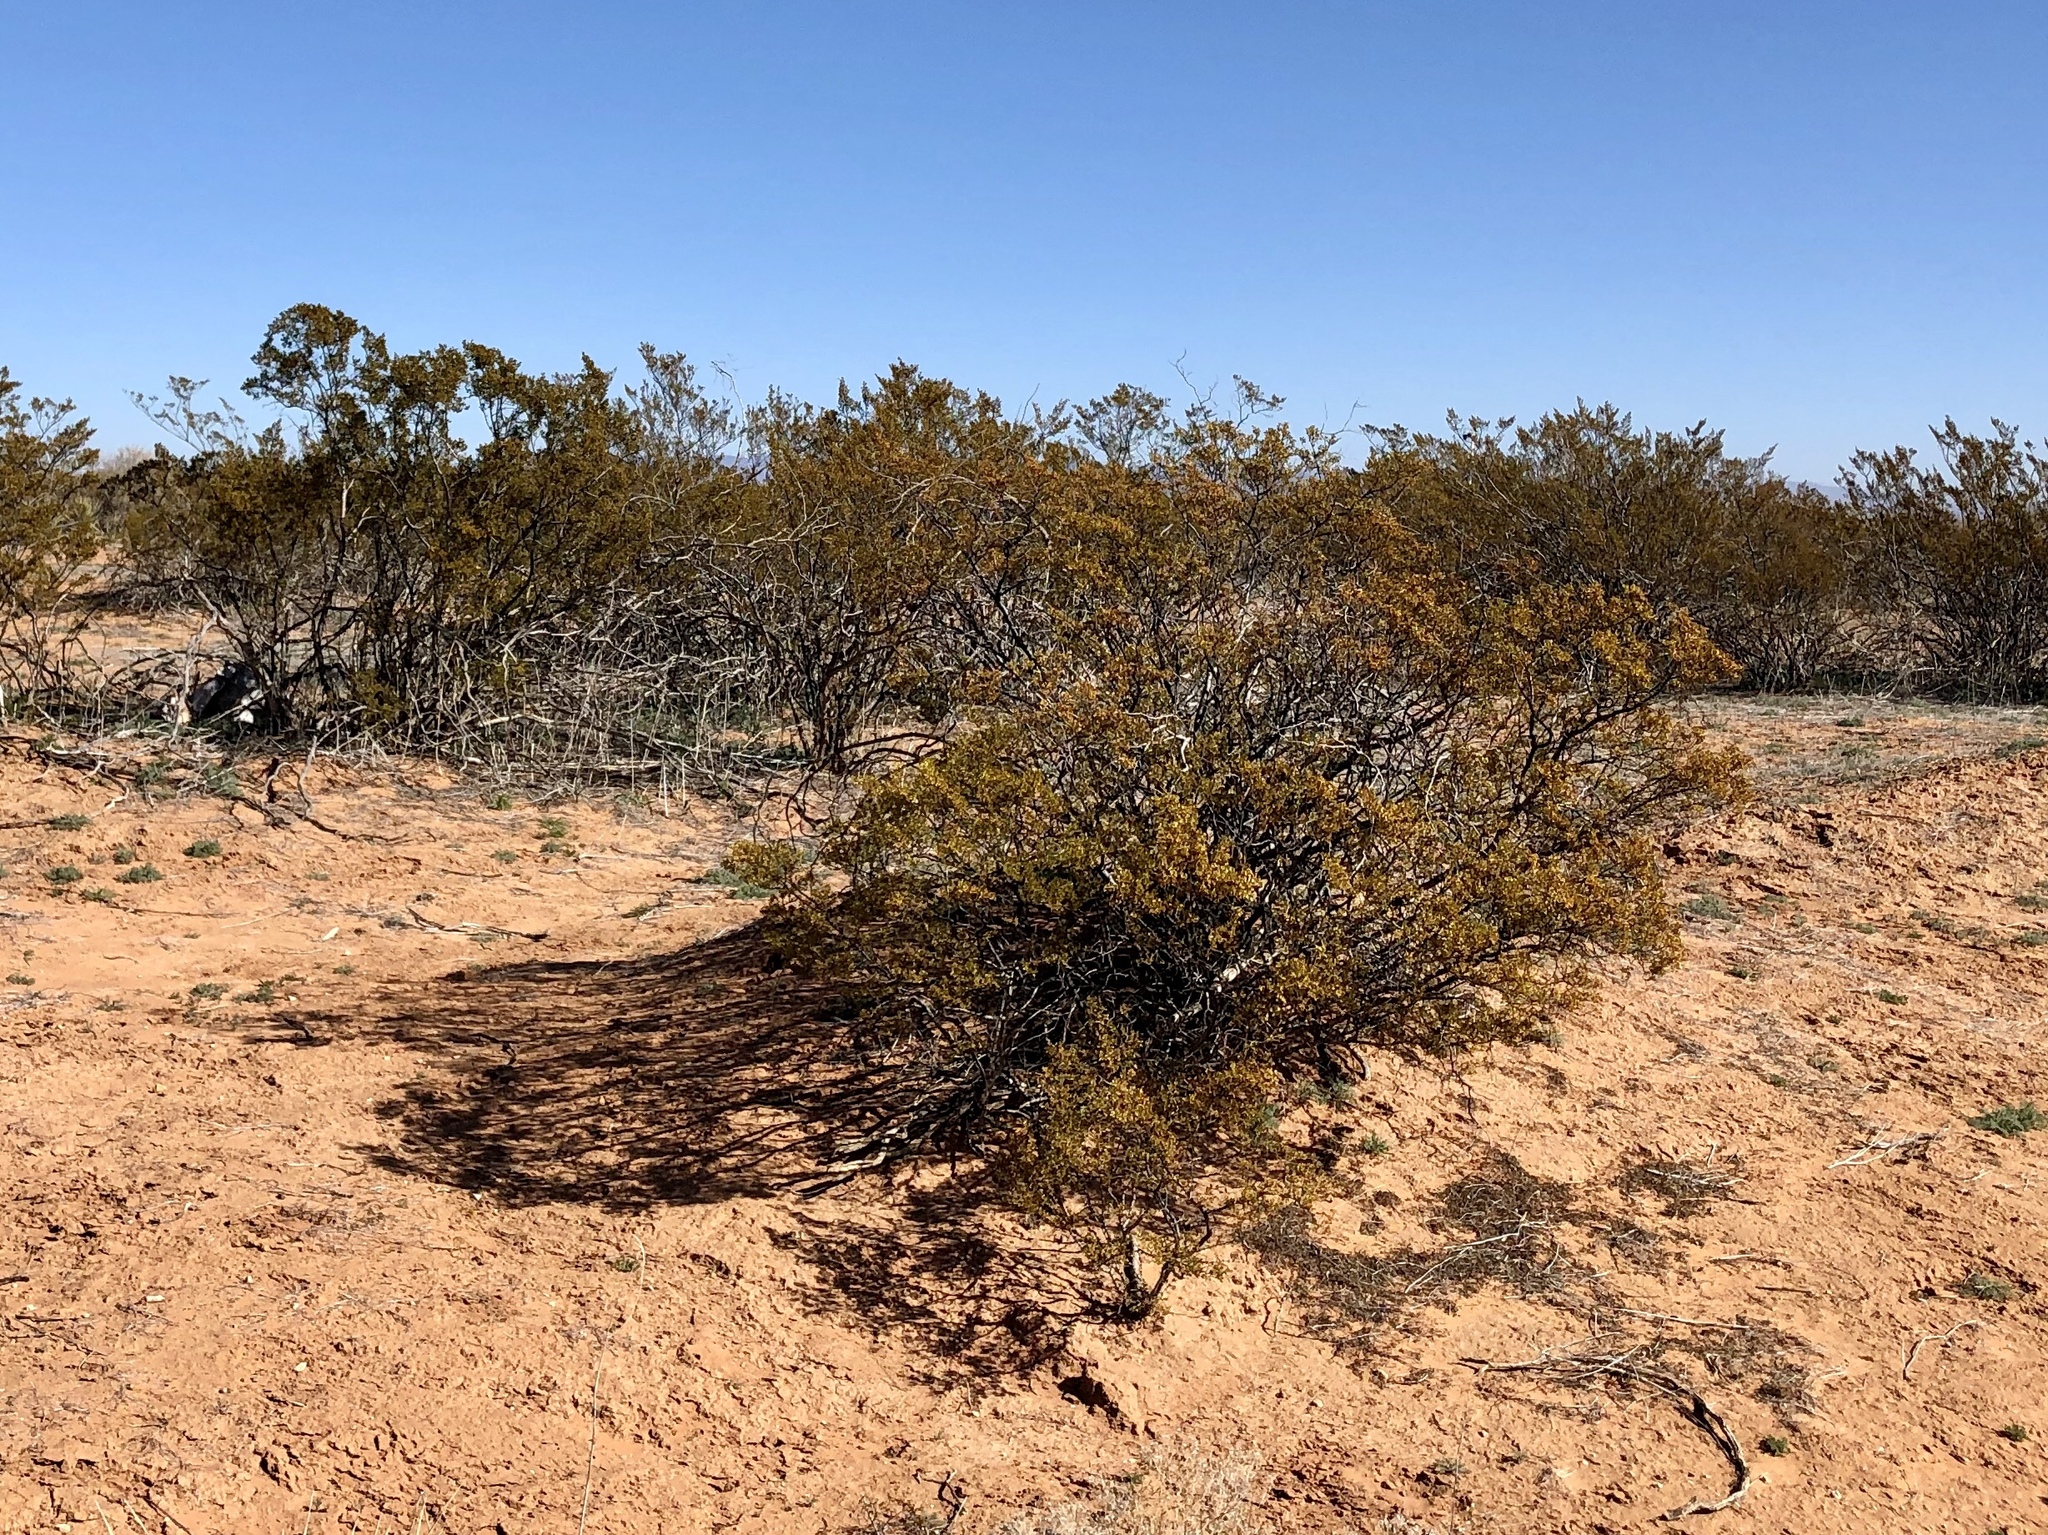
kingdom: Plantae
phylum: Tracheophyta
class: Magnoliopsida
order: Zygophyllales
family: Zygophyllaceae
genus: Larrea
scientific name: Larrea tridentata
